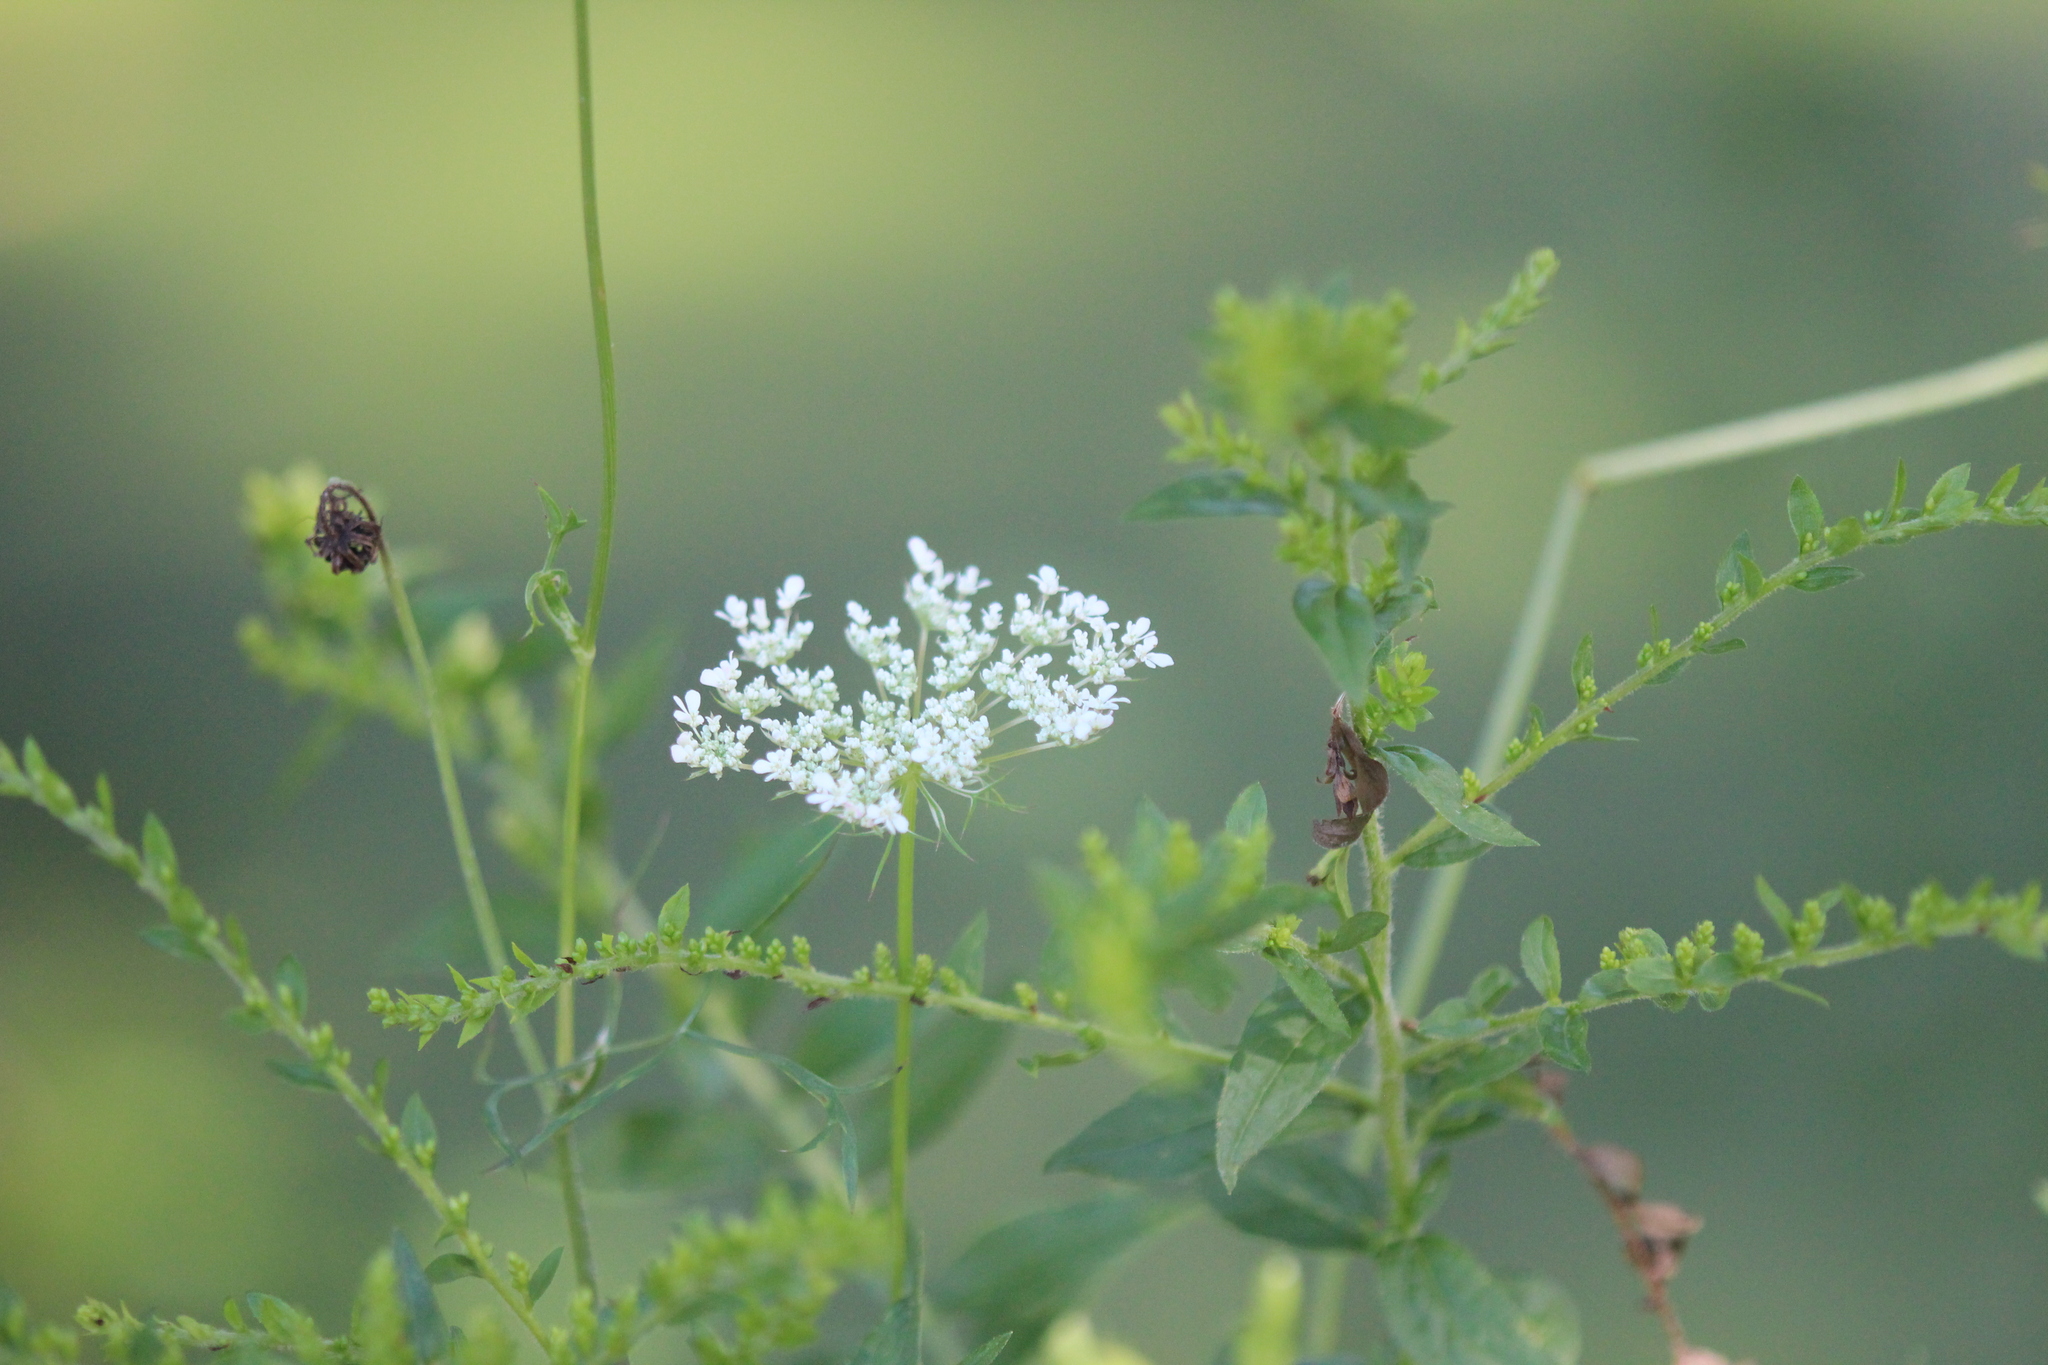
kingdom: Plantae
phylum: Tracheophyta
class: Magnoliopsida
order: Apiales
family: Apiaceae
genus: Daucus
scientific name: Daucus carota
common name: Wild carrot
